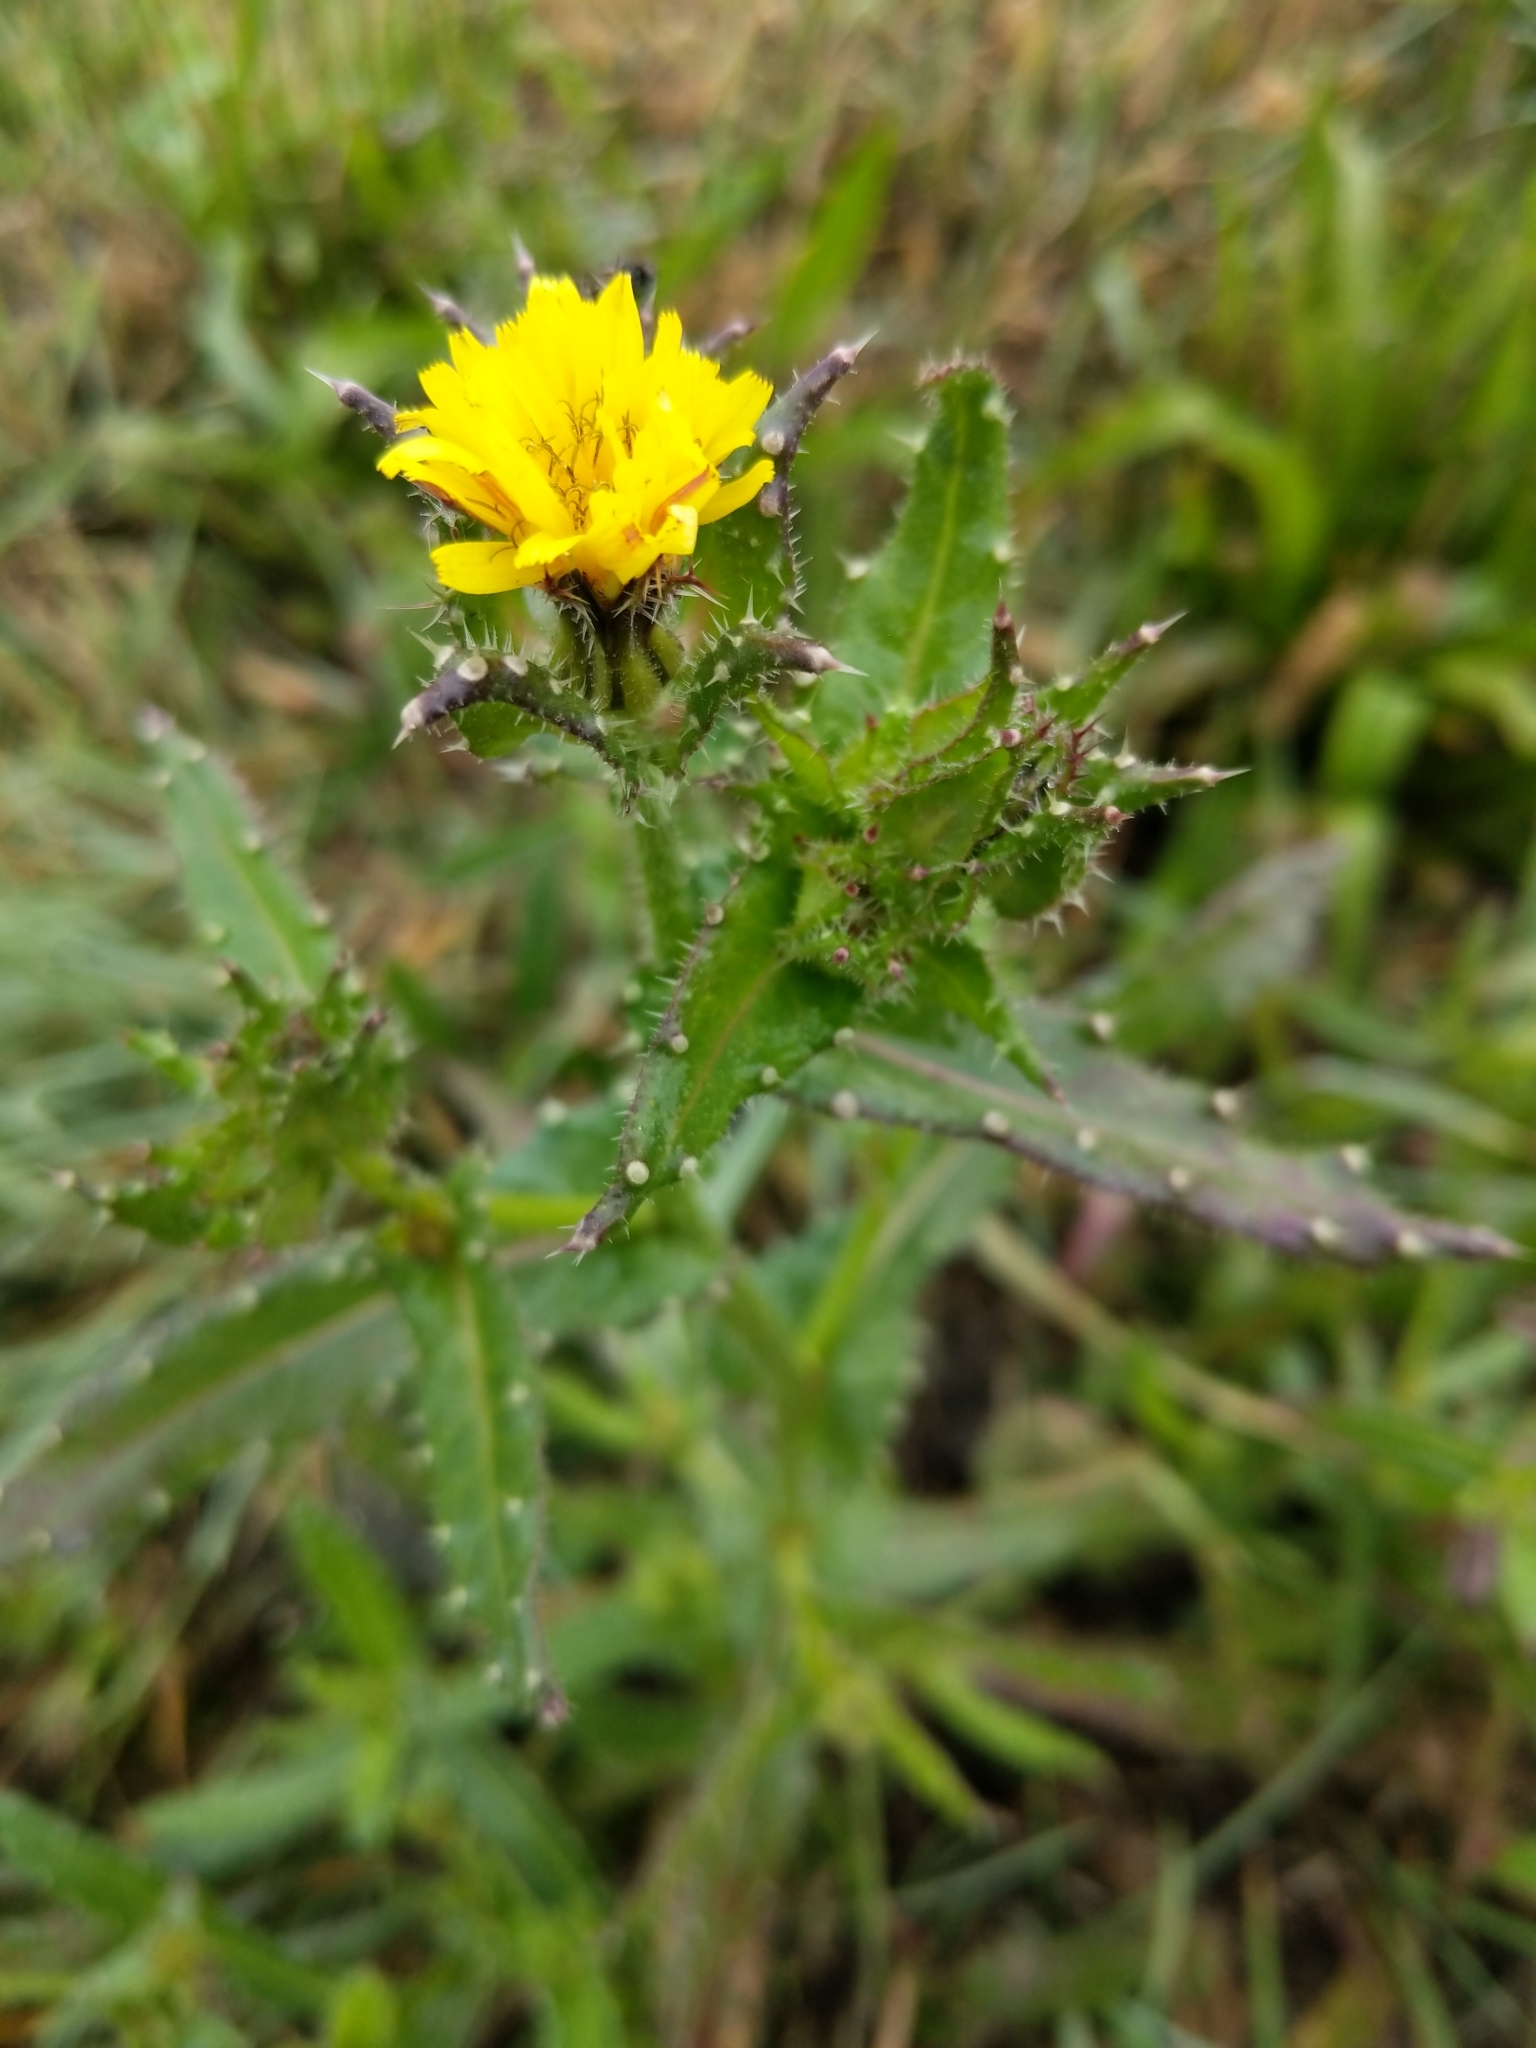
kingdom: Plantae
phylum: Tracheophyta
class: Magnoliopsida
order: Asterales
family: Asteraceae
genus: Helminthotheca
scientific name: Helminthotheca echioides
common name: Ox-tongue
